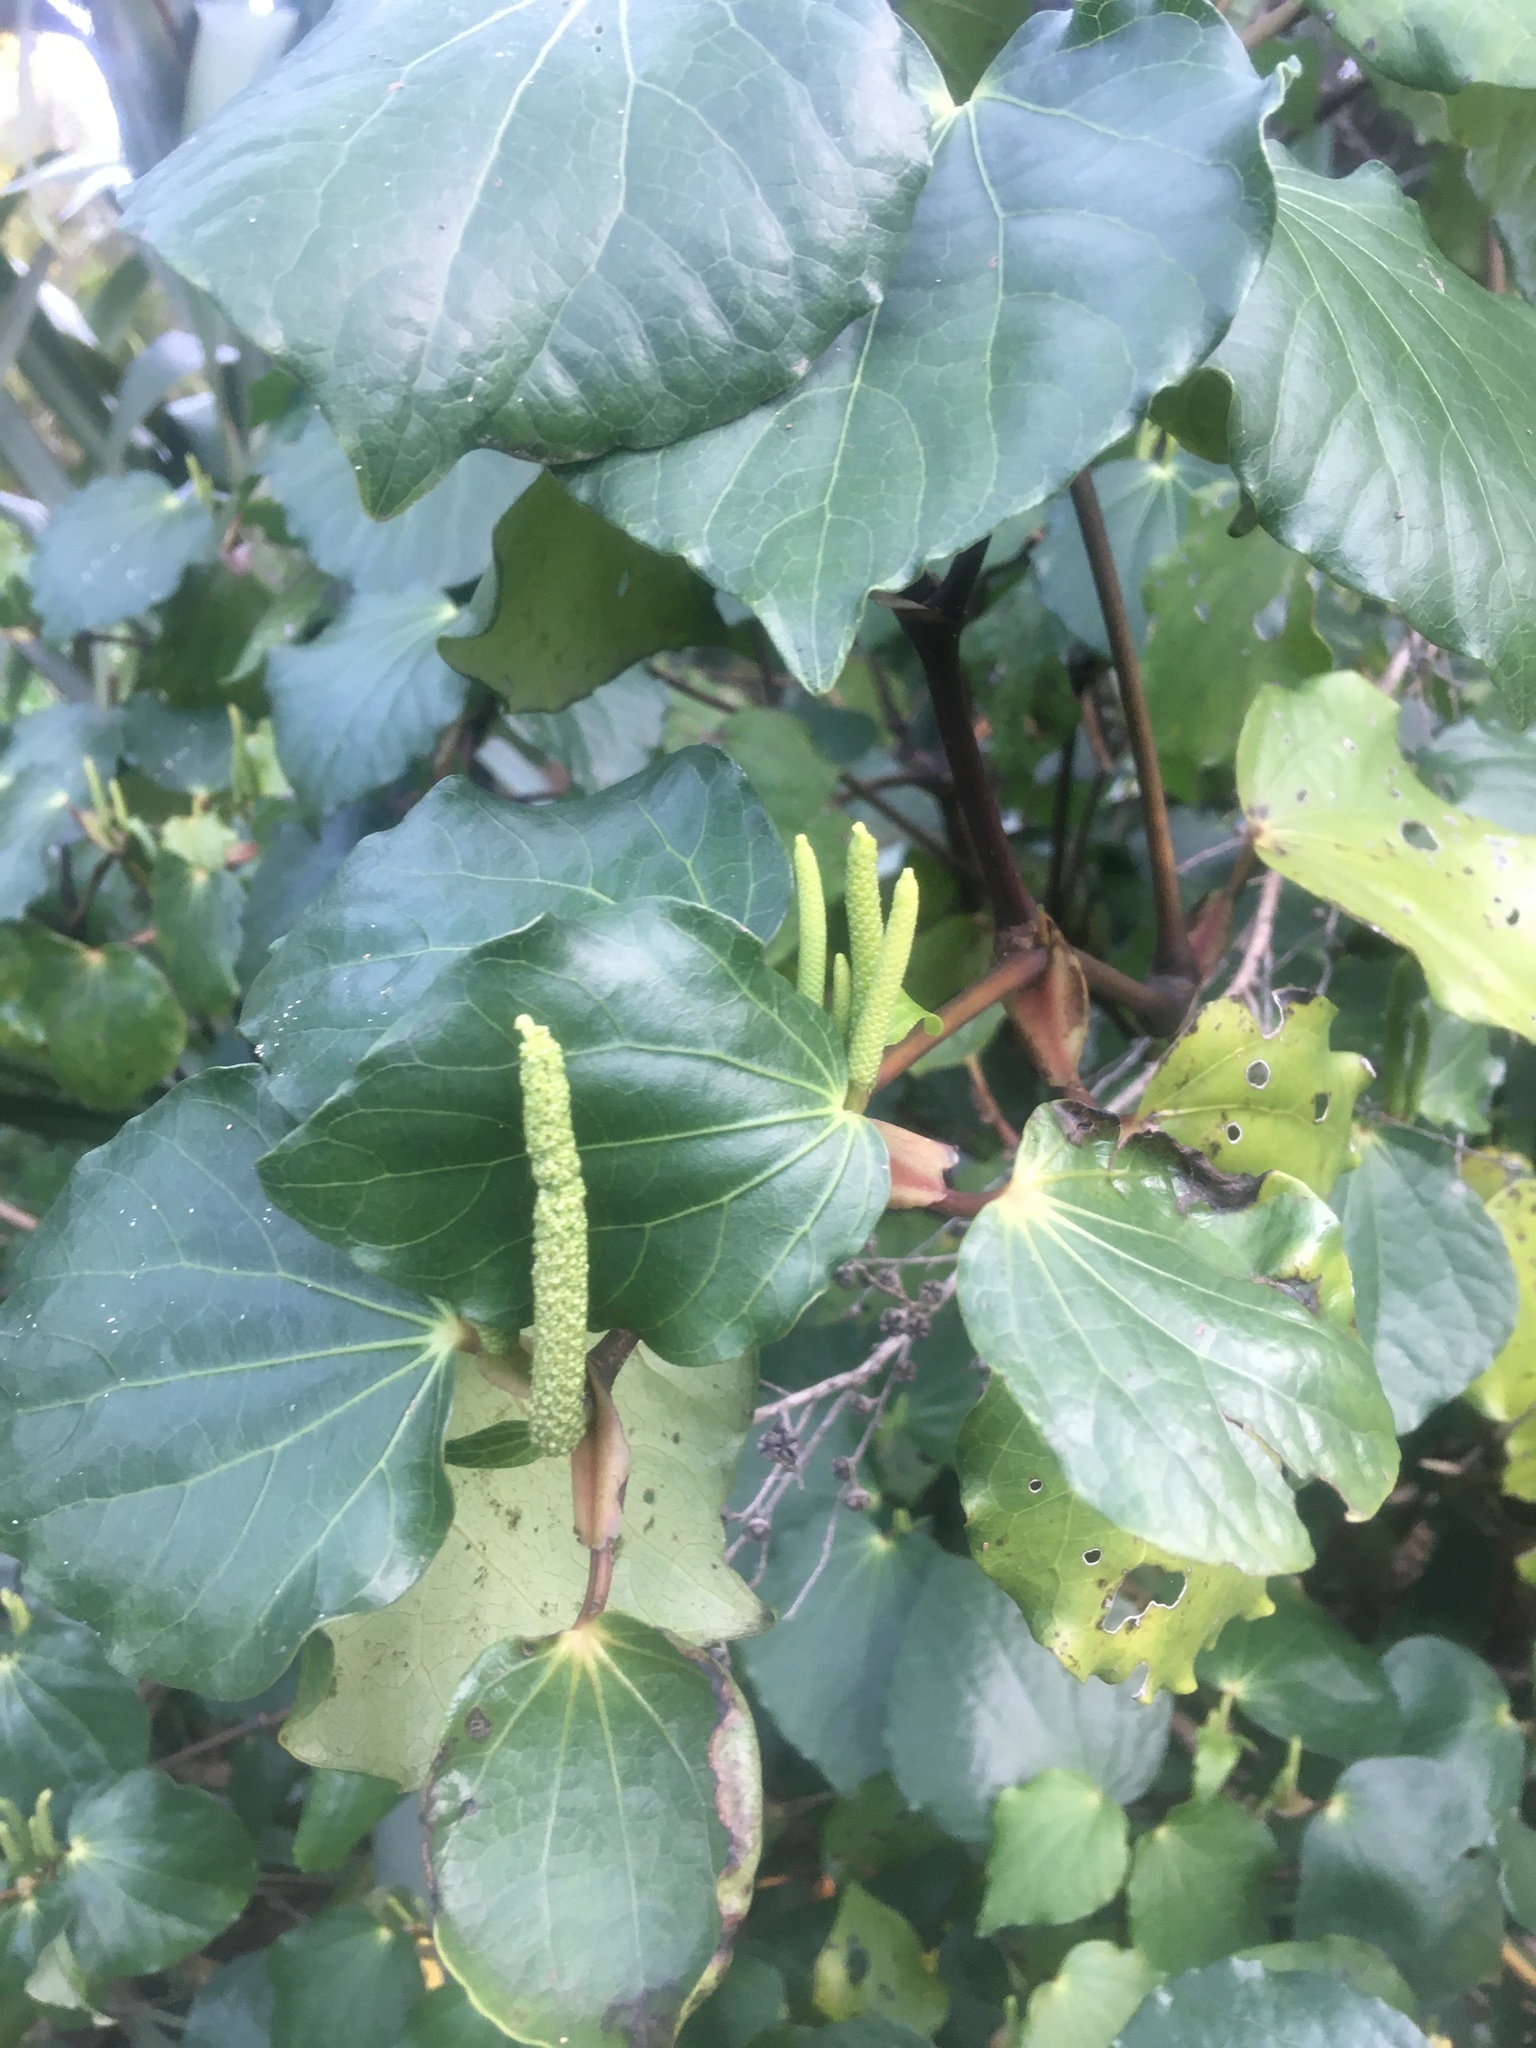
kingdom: Plantae
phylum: Tracheophyta
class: Magnoliopsida
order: Piperales
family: Piperaceae
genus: Macropiper
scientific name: Macropiper excelsum
